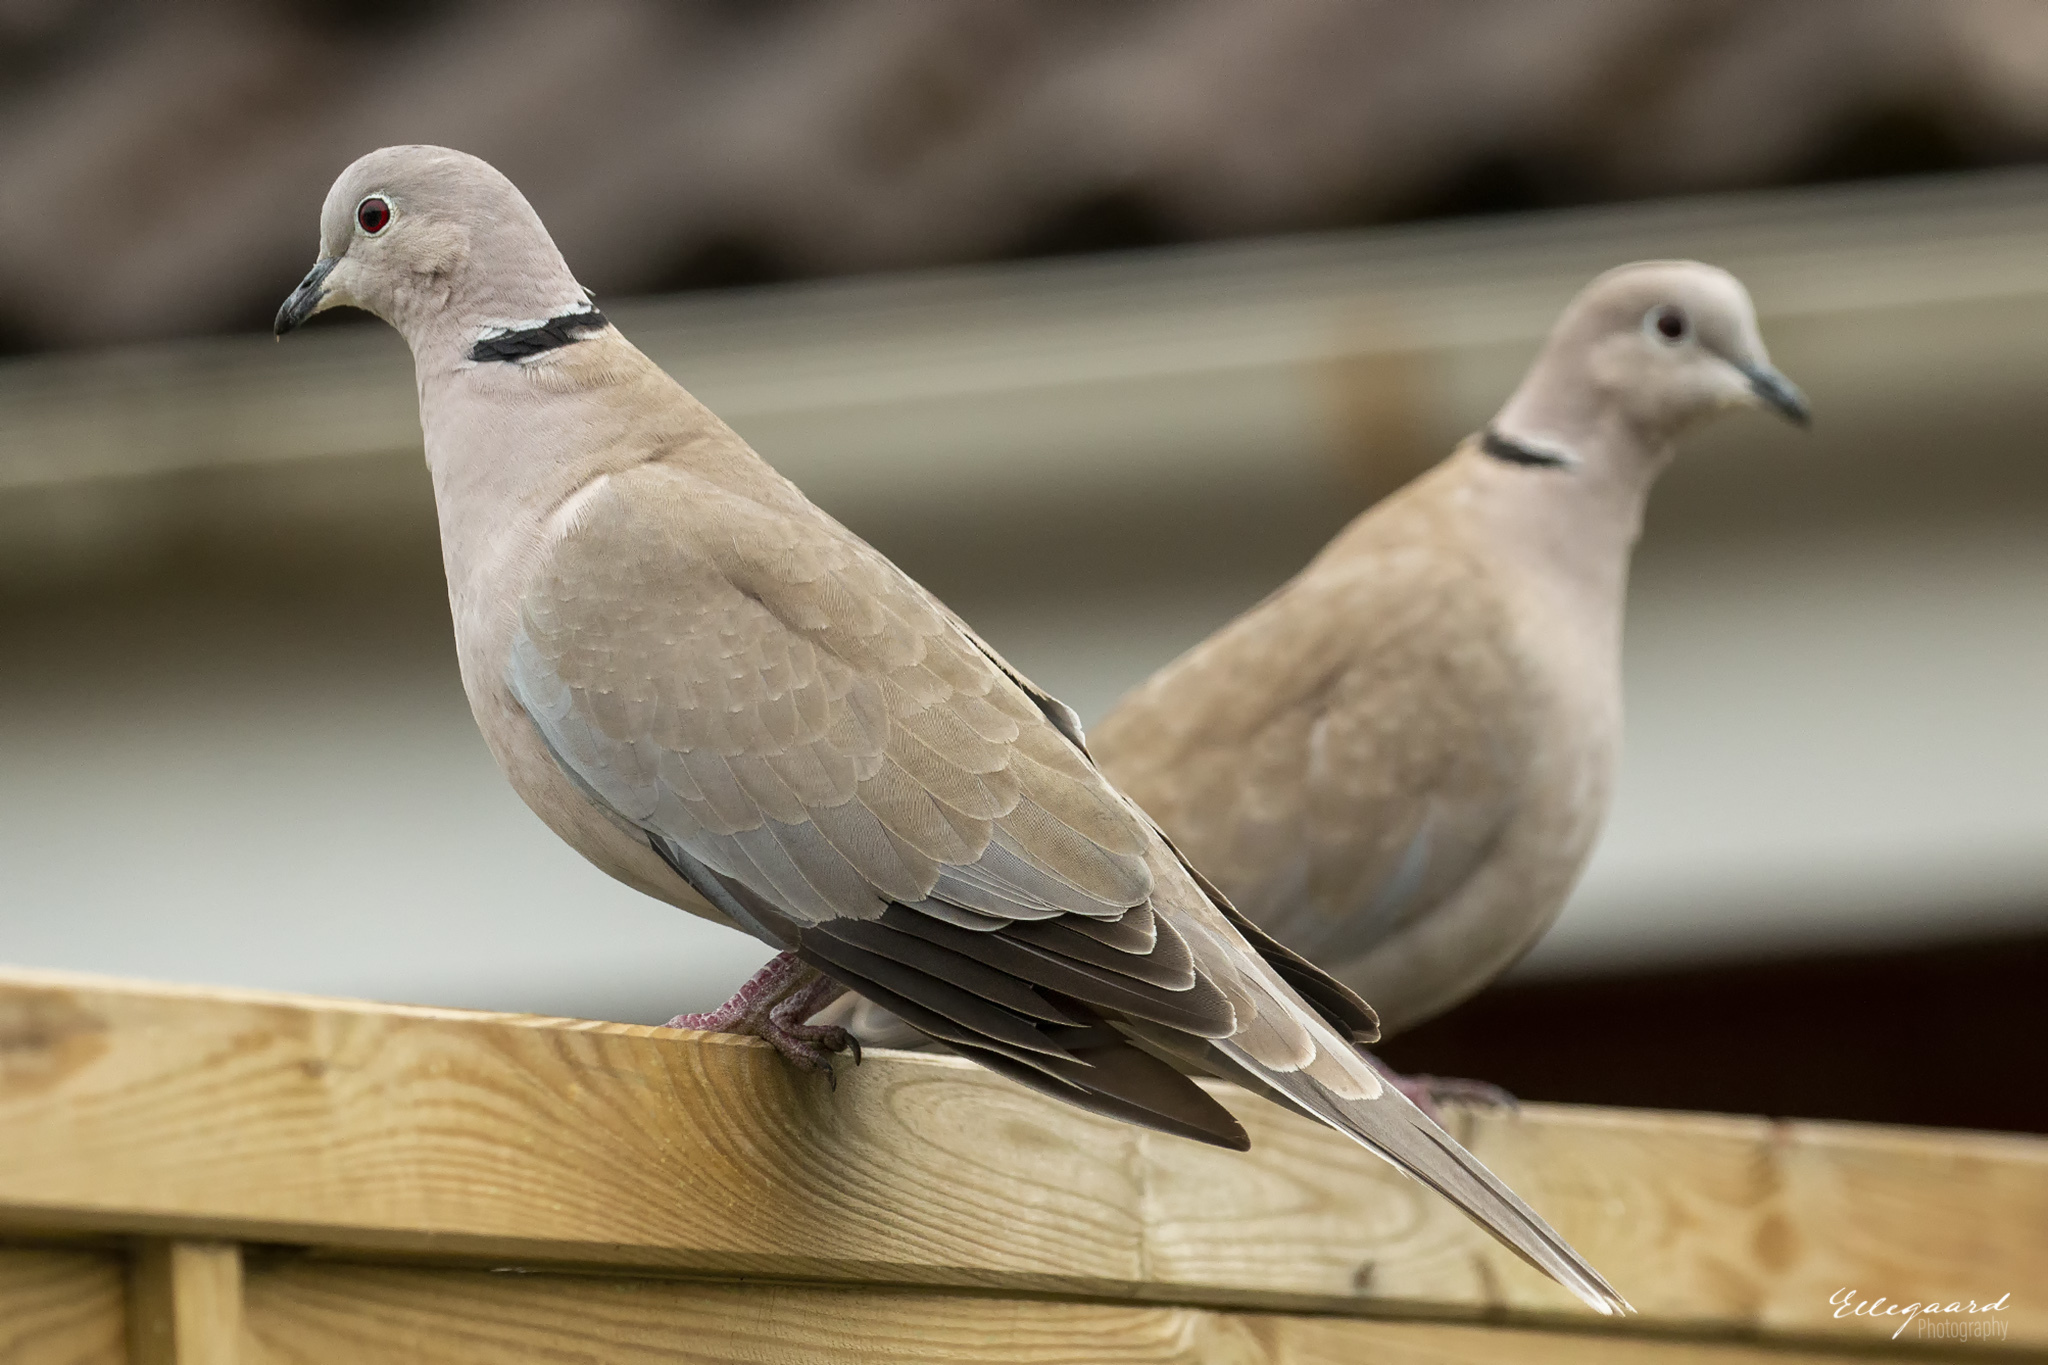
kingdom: Animalia
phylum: Chordata
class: Aves
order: Columbiformes
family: Columbidae
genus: Streptopelia
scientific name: Streptopelia decaocto
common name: Eurasian collared dove
